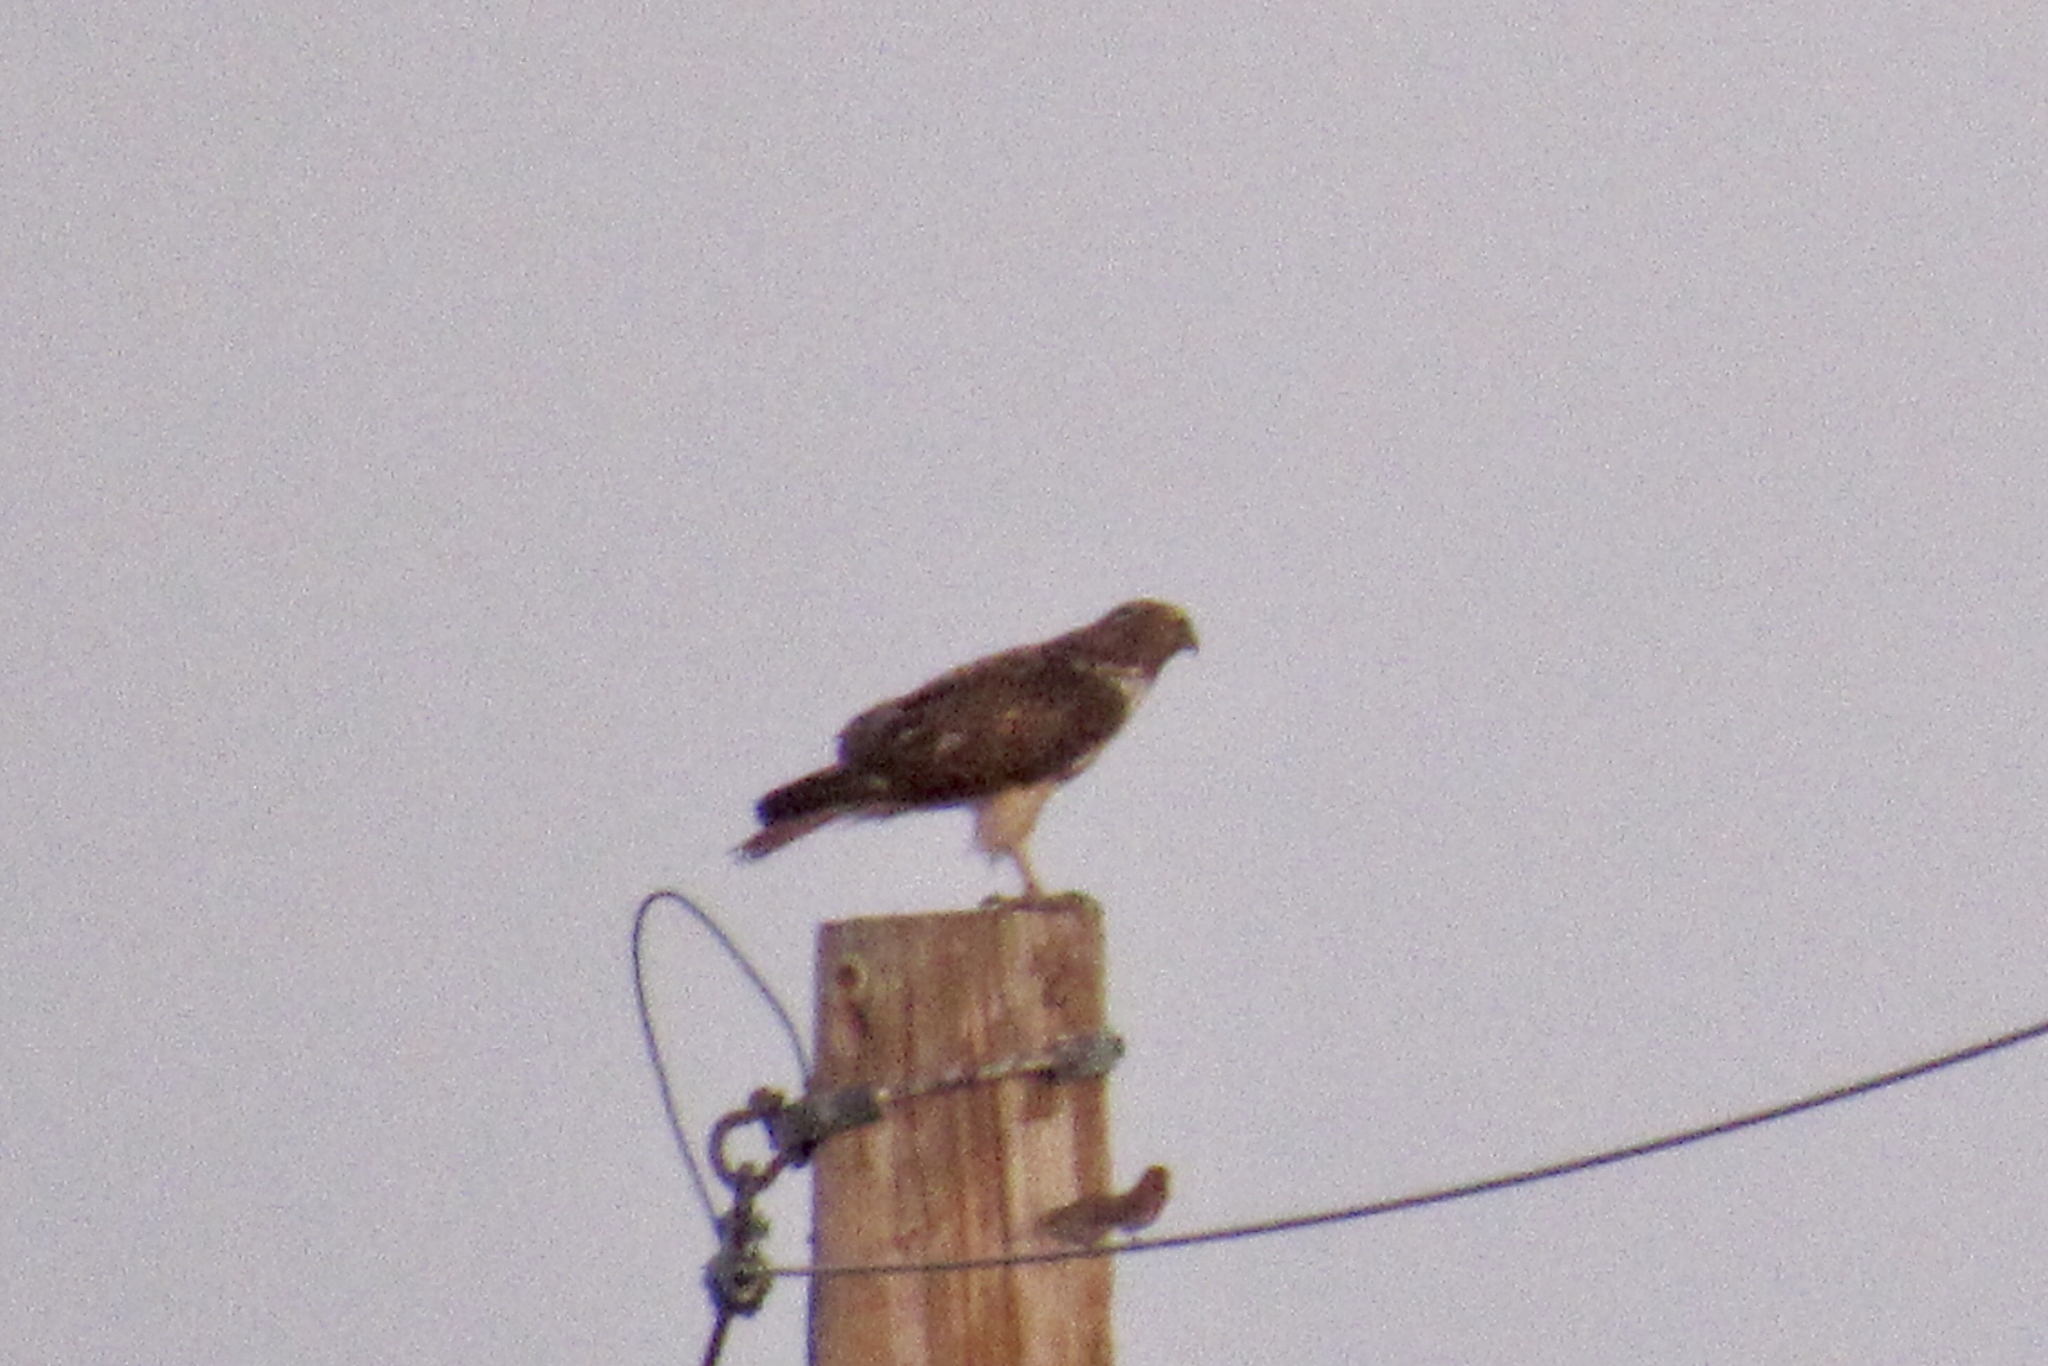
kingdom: Animalia
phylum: Chordata
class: Aves
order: Accipitriformes
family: Accipitridae
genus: Buteo
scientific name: Buteo jamaicensis
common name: Red-tailed hawk
